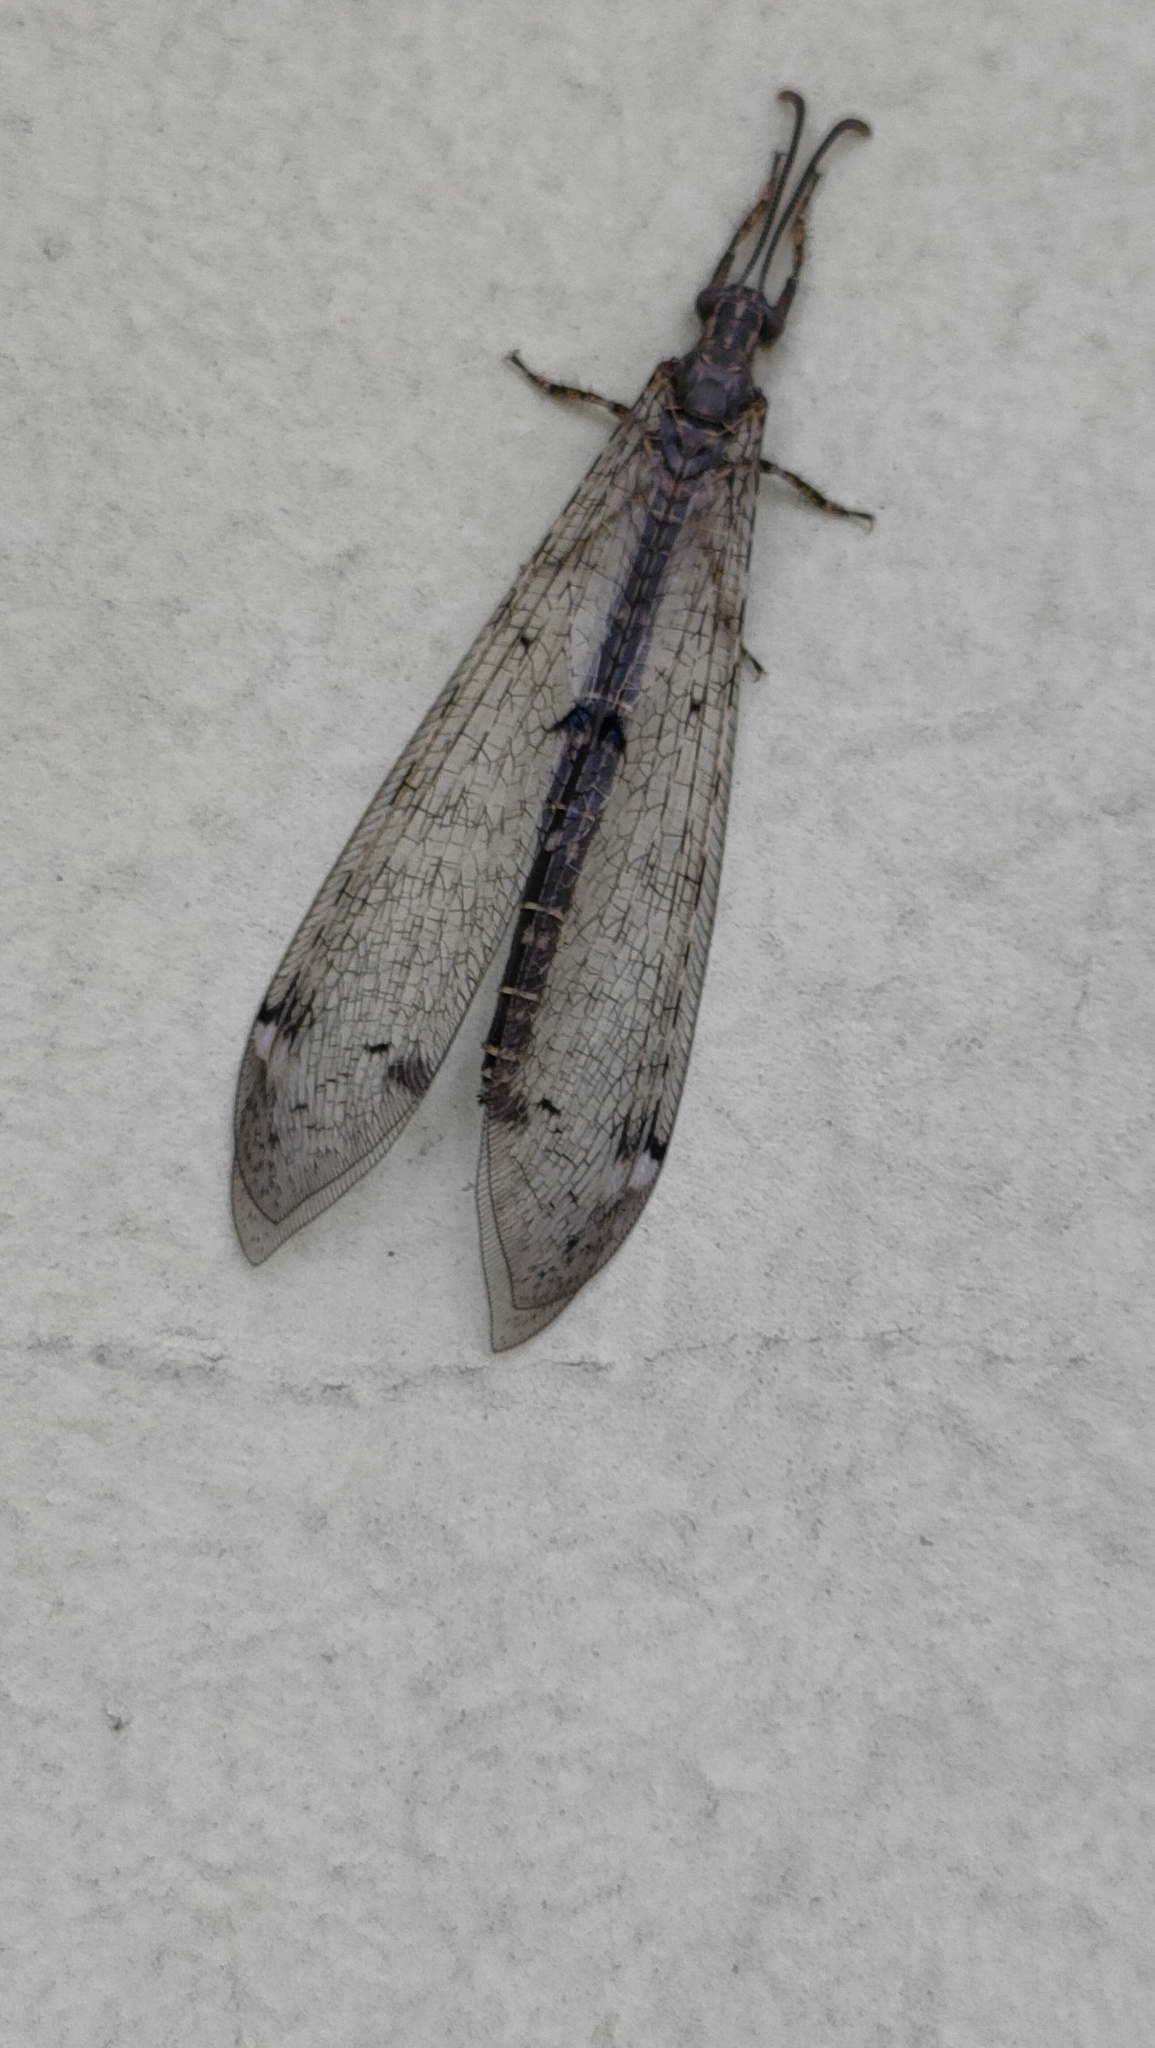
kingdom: Animalia
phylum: Arthropoda
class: Insecta
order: Neuroptera
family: Myrmeleontidae
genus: Distoleon
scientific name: Distoleon tetragrammicus
